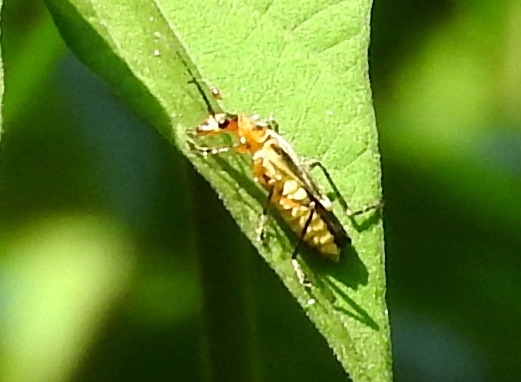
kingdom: Animalia
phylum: Arthropoda
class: Insecta
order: Coleoptera
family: Cantharidae
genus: Chauliognathus
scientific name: Chauliognathus
